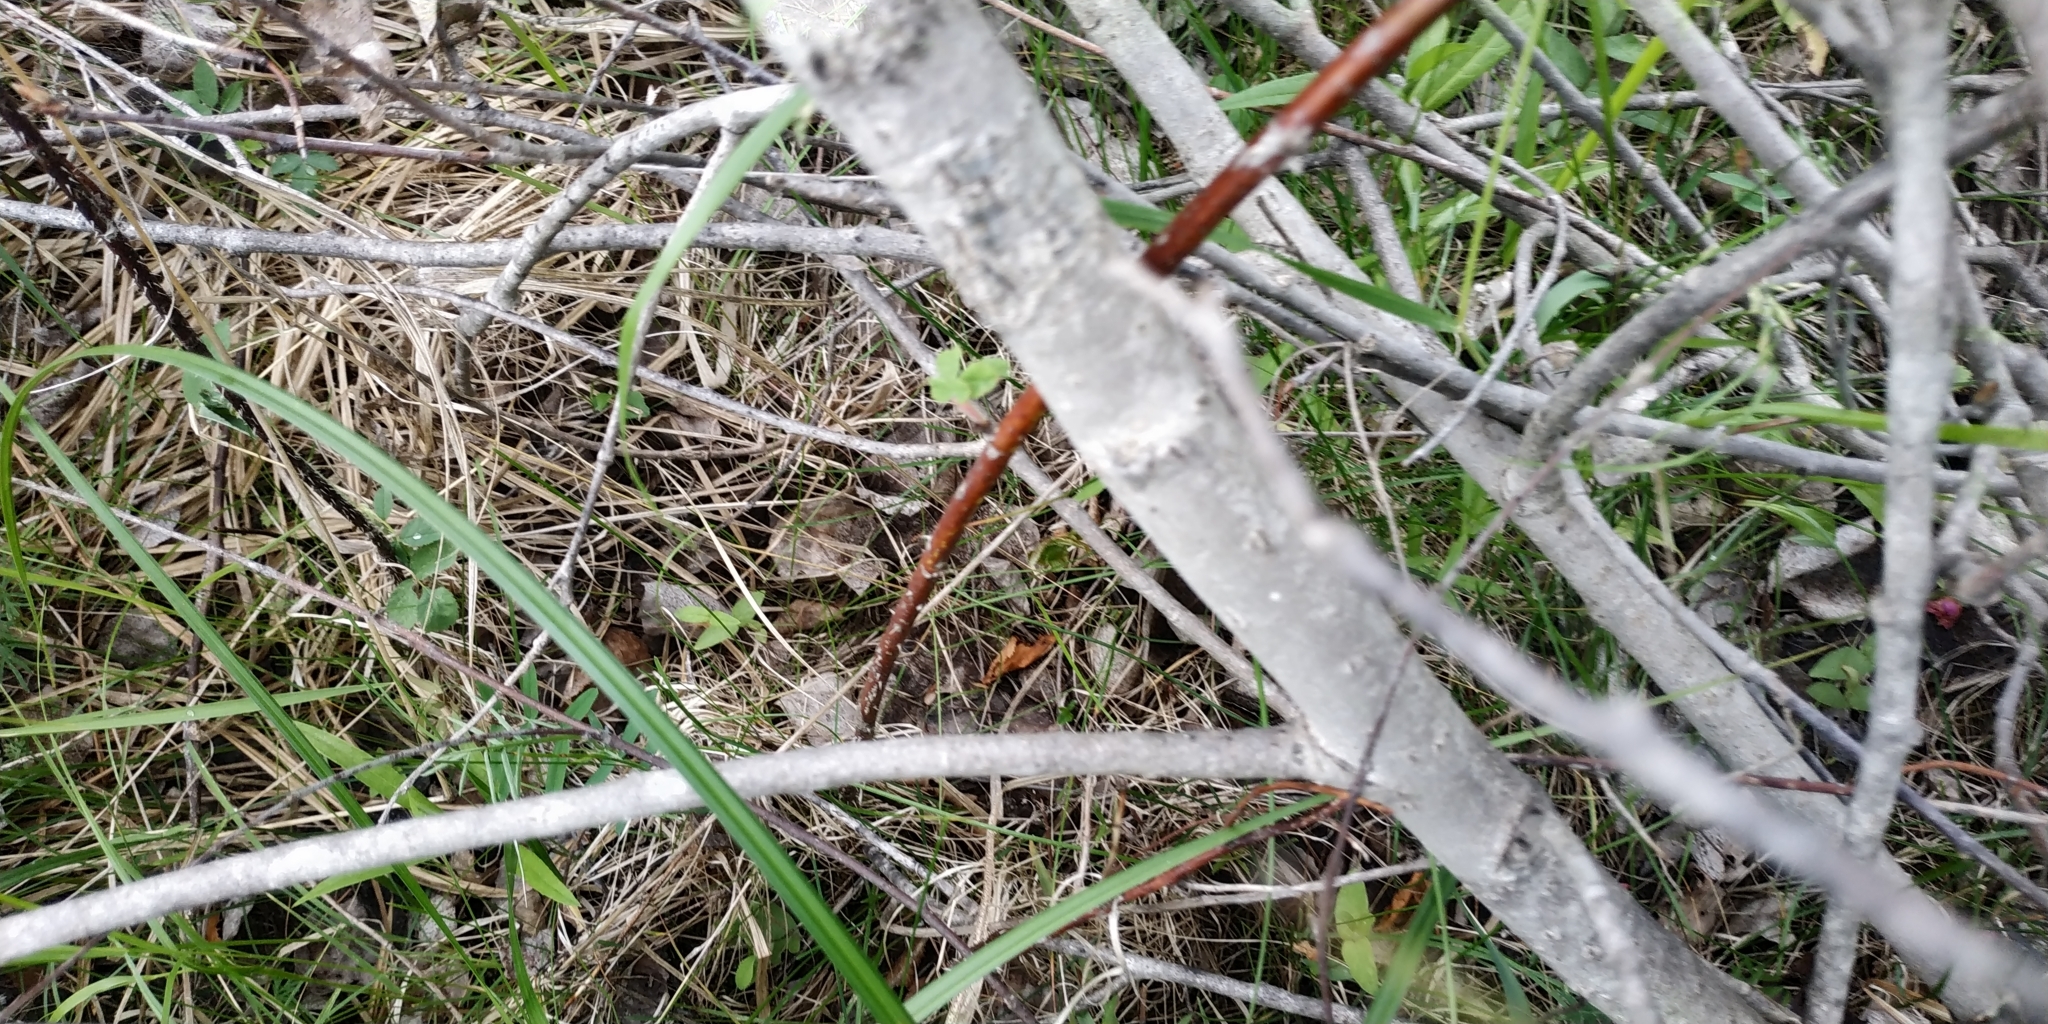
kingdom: Plantae
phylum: Tracheophyta
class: Magnoliopsida
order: Rosales
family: Rosaceae
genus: Rosa
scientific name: Rosa majalis
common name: Cinnamon rose
